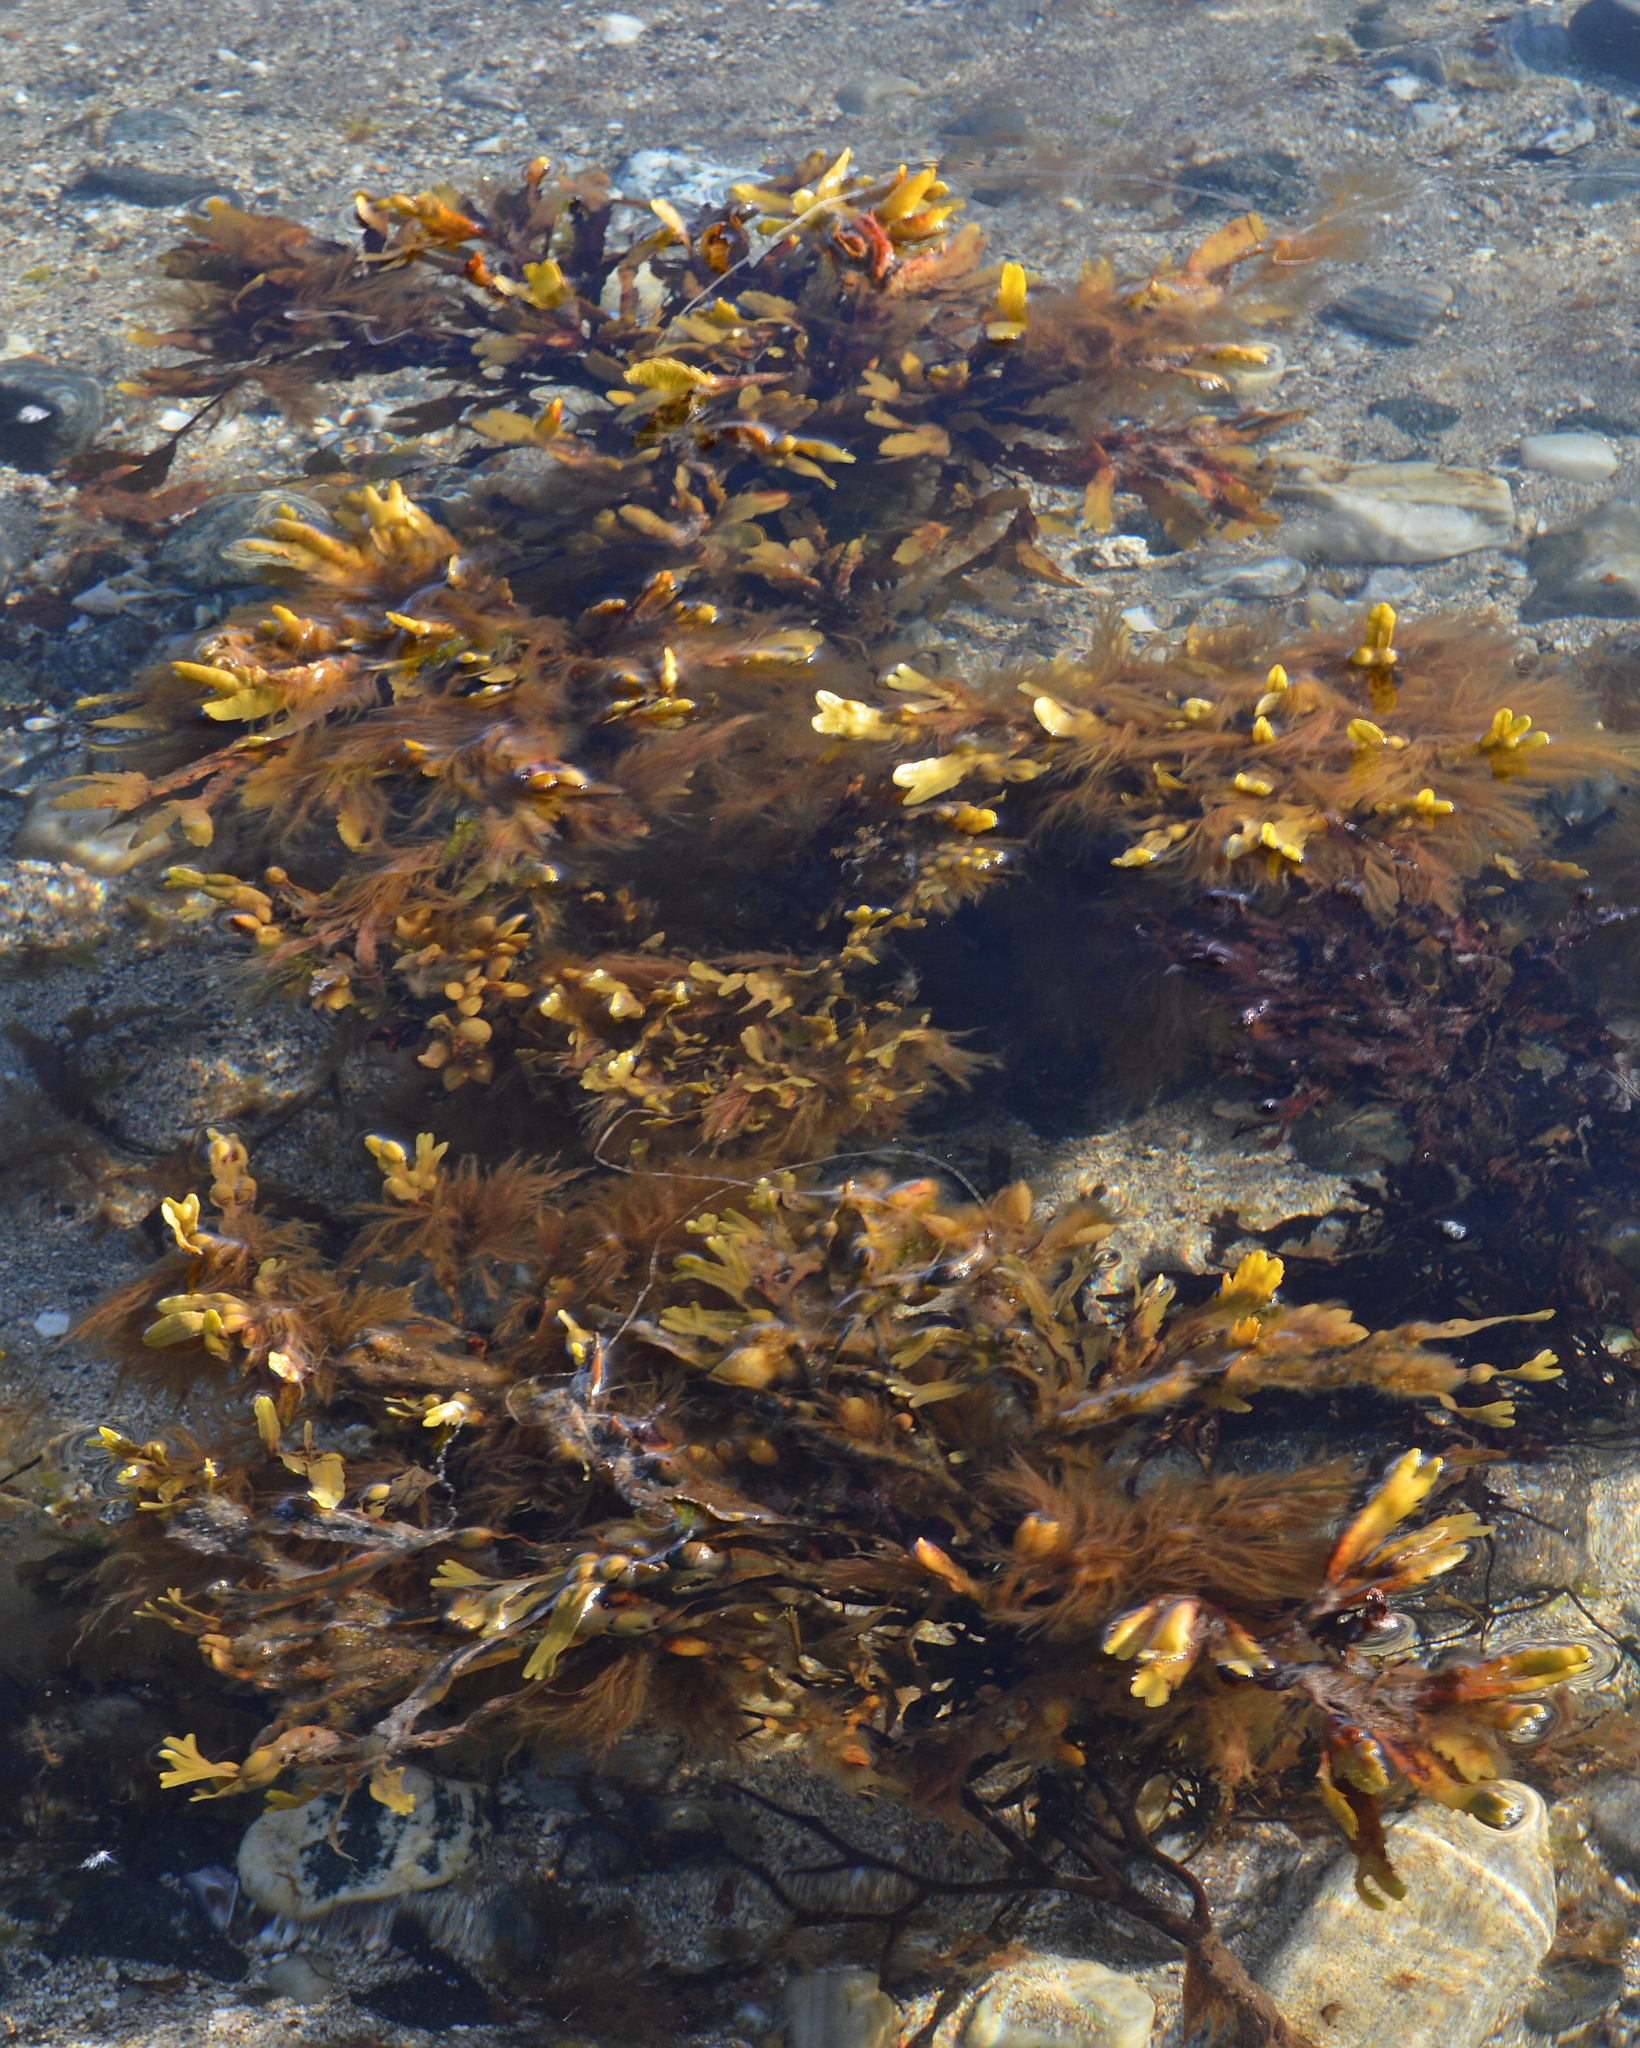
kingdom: Chromista
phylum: Ochrophyta
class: Phaeophyceae
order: Fucales
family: Fucaceae
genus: Fucus
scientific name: Fucus vesiculosus
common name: Bladder wrack
